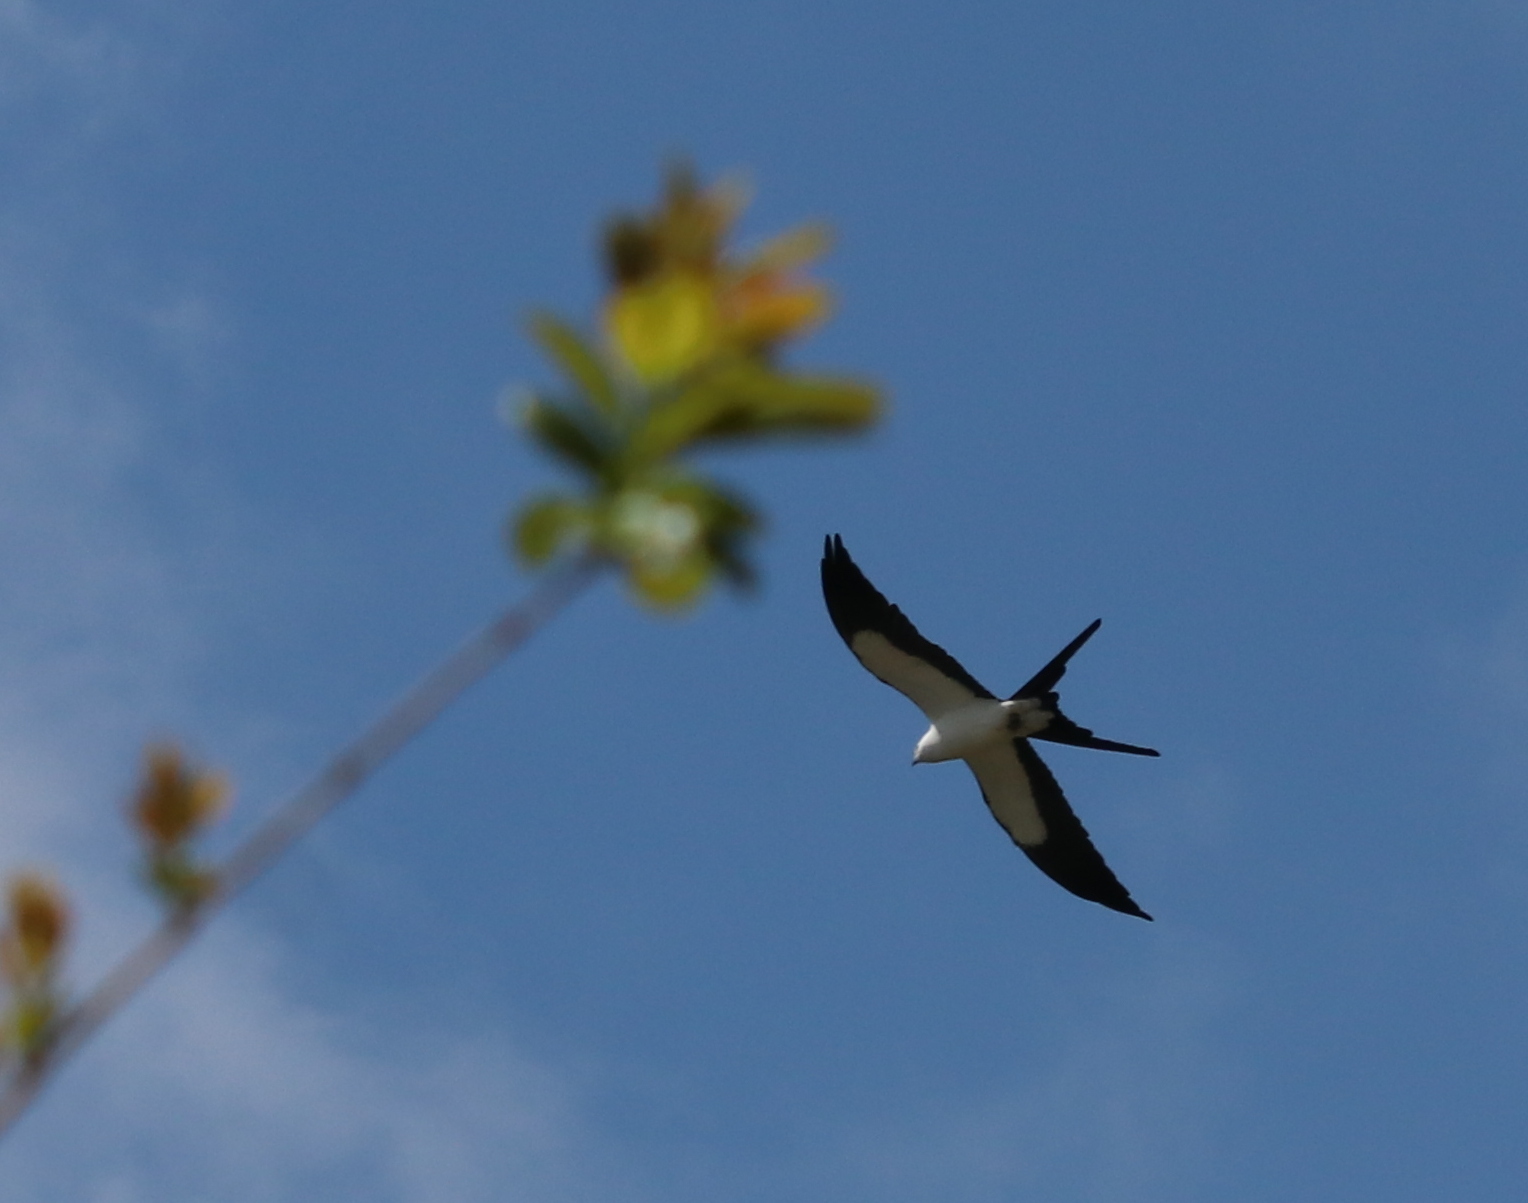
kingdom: Animalia
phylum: Chordata
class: Aves
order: Accipitriformes
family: Accipitridae
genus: Elanoides
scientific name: Elanoides forficatus
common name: Swallow-tailed kite
